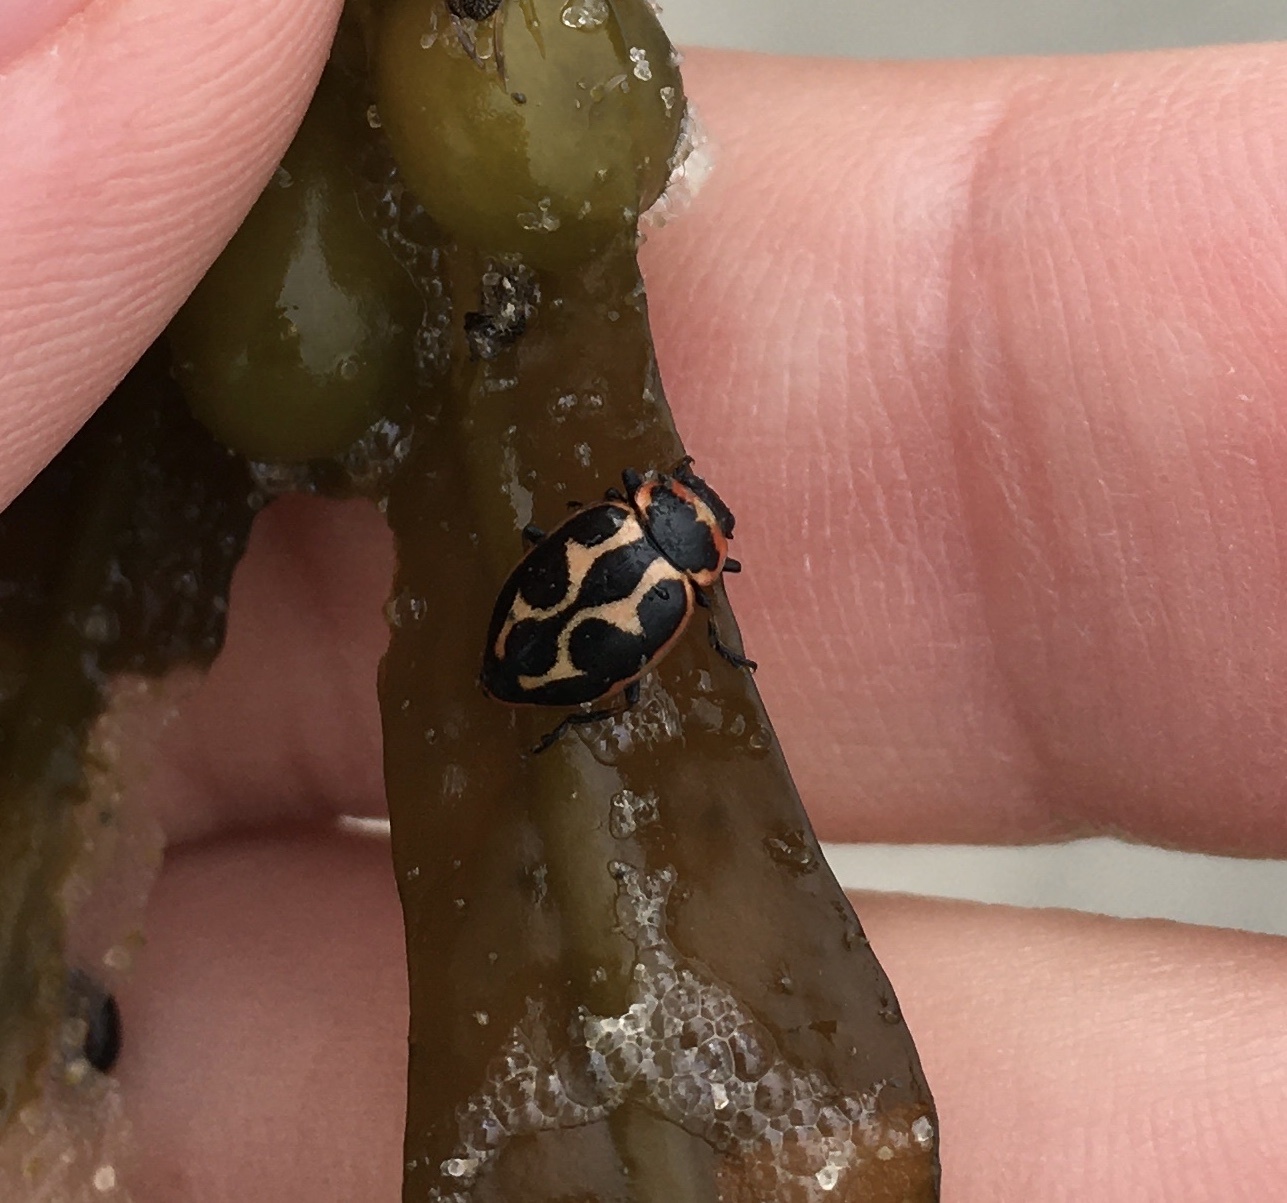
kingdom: Animalia
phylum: Arthropoda
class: Insecta
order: Coleoptera
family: Coccinellidae
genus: Naemia
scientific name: Naemia seriata
